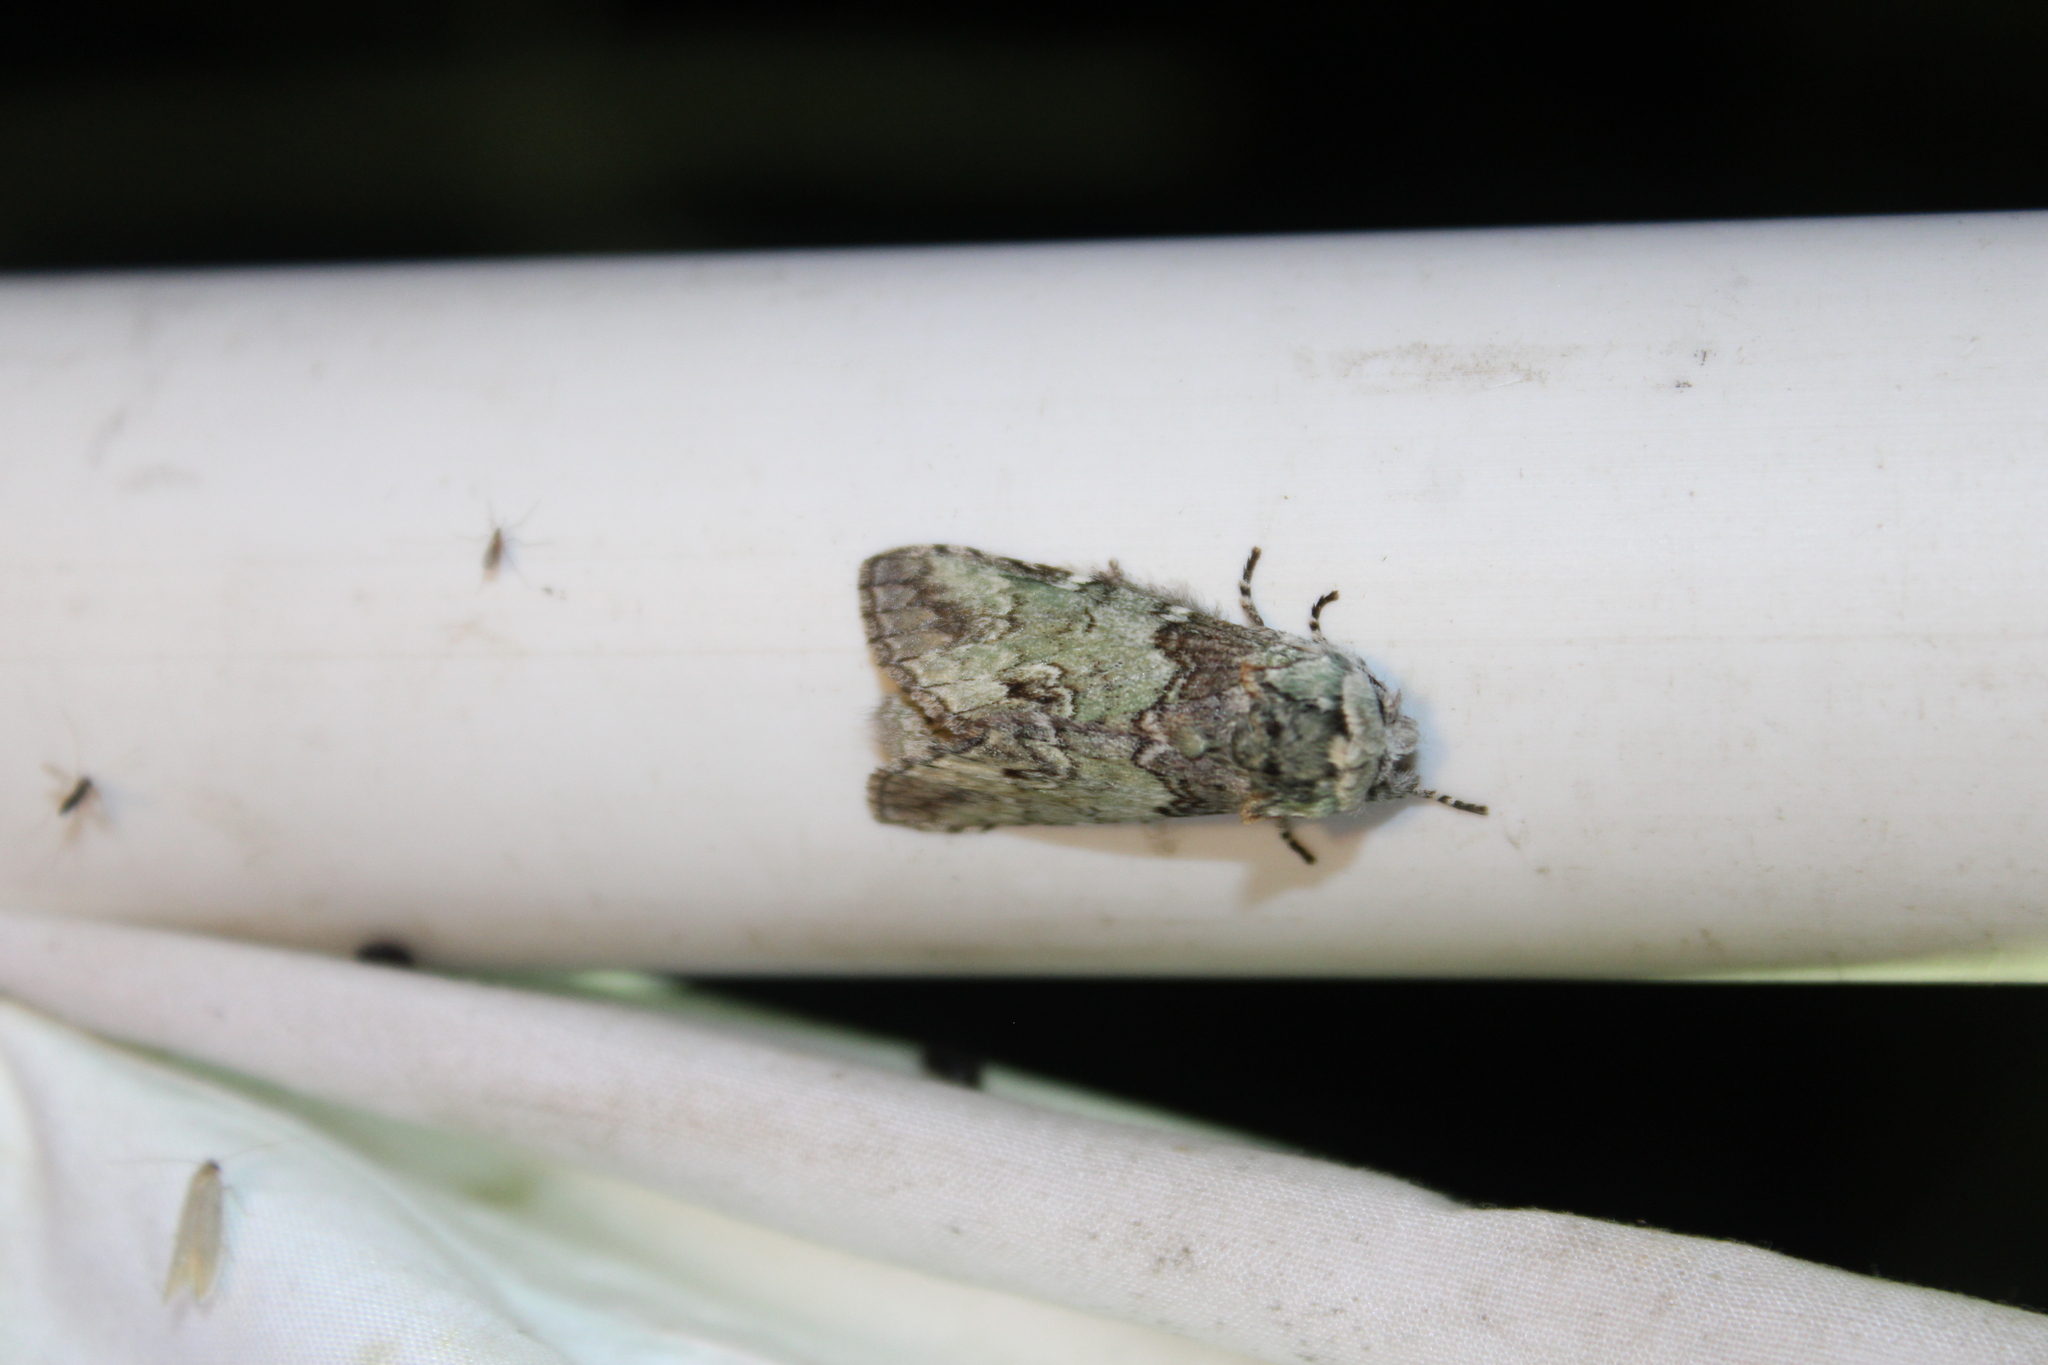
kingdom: Animalia
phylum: Arthropoda
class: Insecta
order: Lepidoptera
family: Notodontidae
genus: Macrurocampa
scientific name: Macrurocampa marthesia
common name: Mottled prominent
